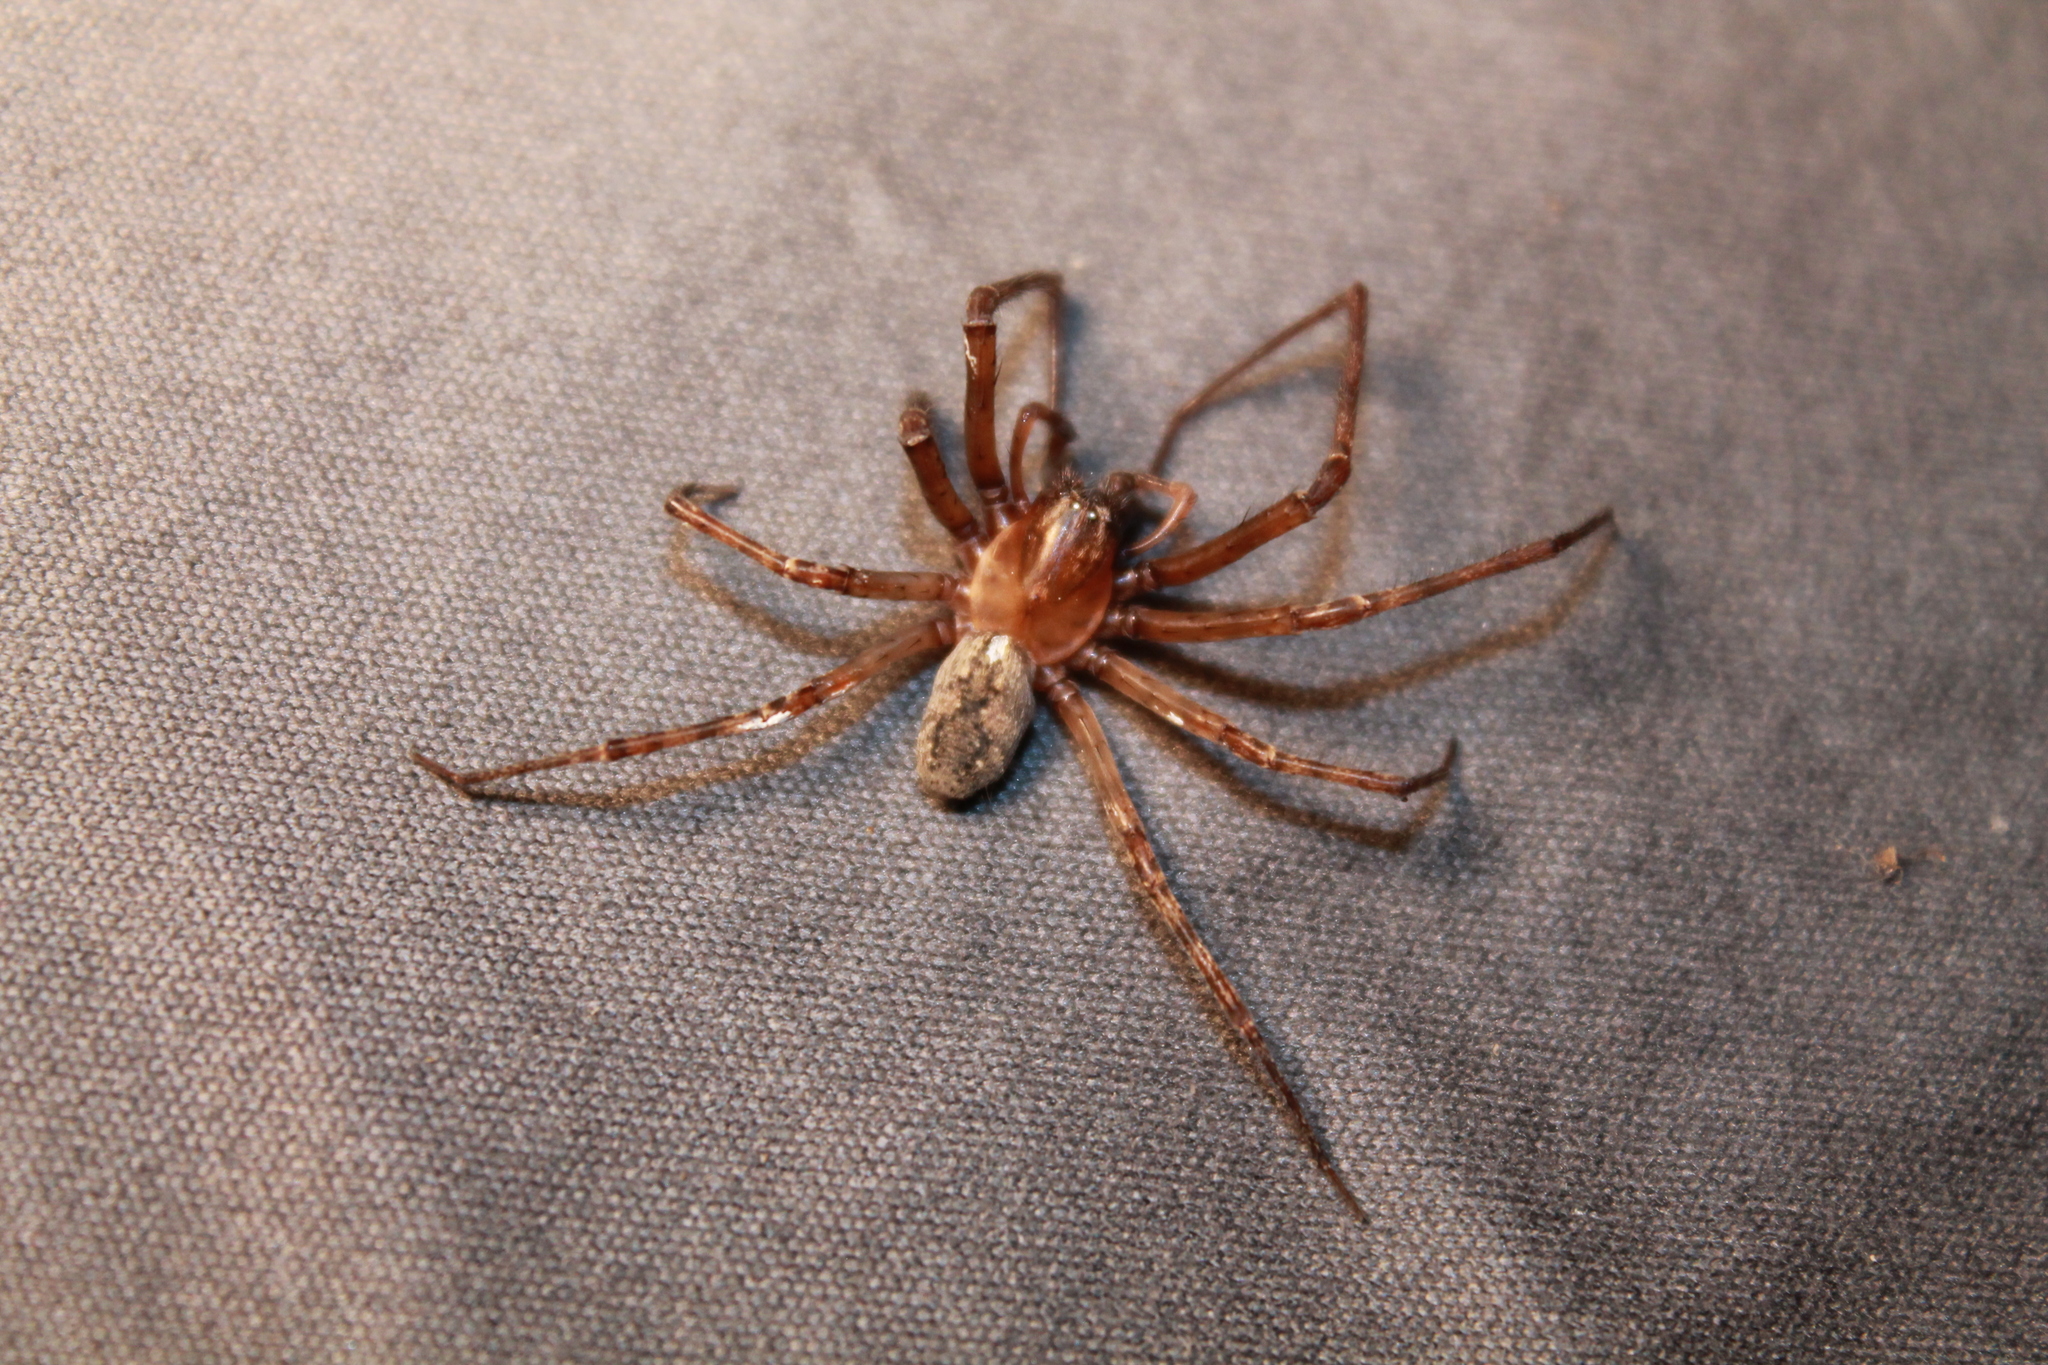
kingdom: Animalia
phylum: Arthropoda
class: Arachnida
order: Araneae
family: Desidae
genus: Nuisiana
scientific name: Nuisiana arboris
